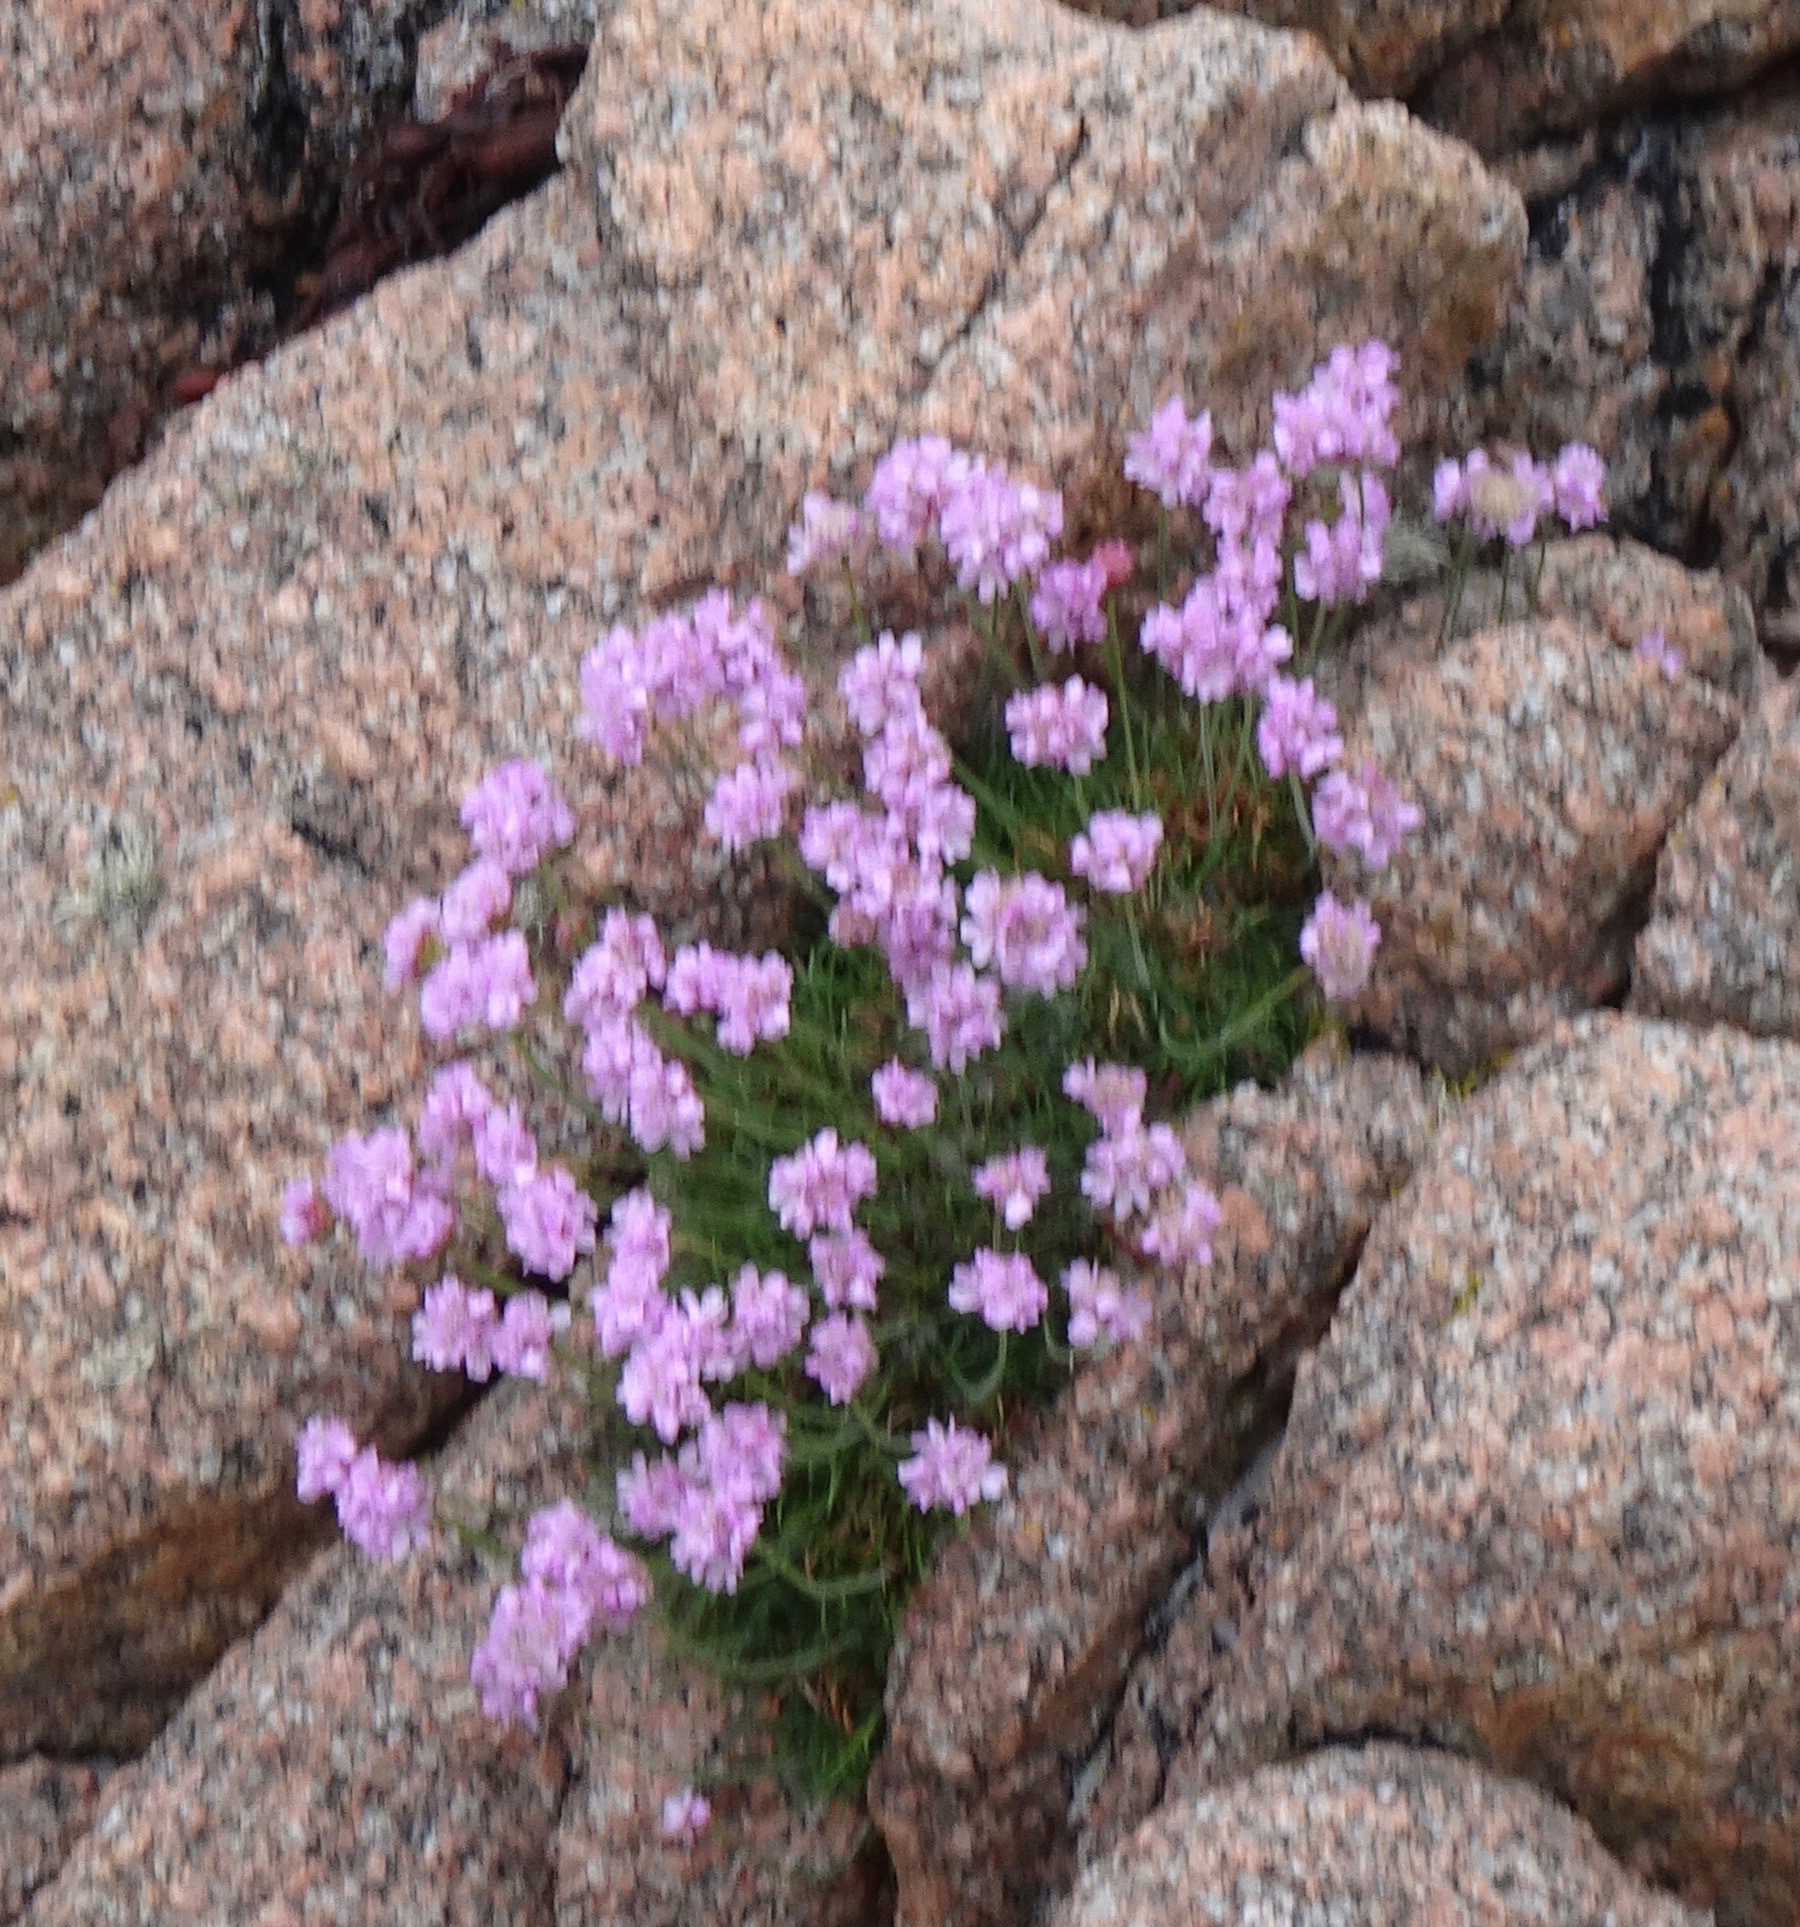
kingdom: Plantae
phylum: Tracheophyta
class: Magnoliopsida
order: Caryophyllales
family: Plumbaginaceae
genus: Armeria
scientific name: Armeria maritima
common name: Thrift
